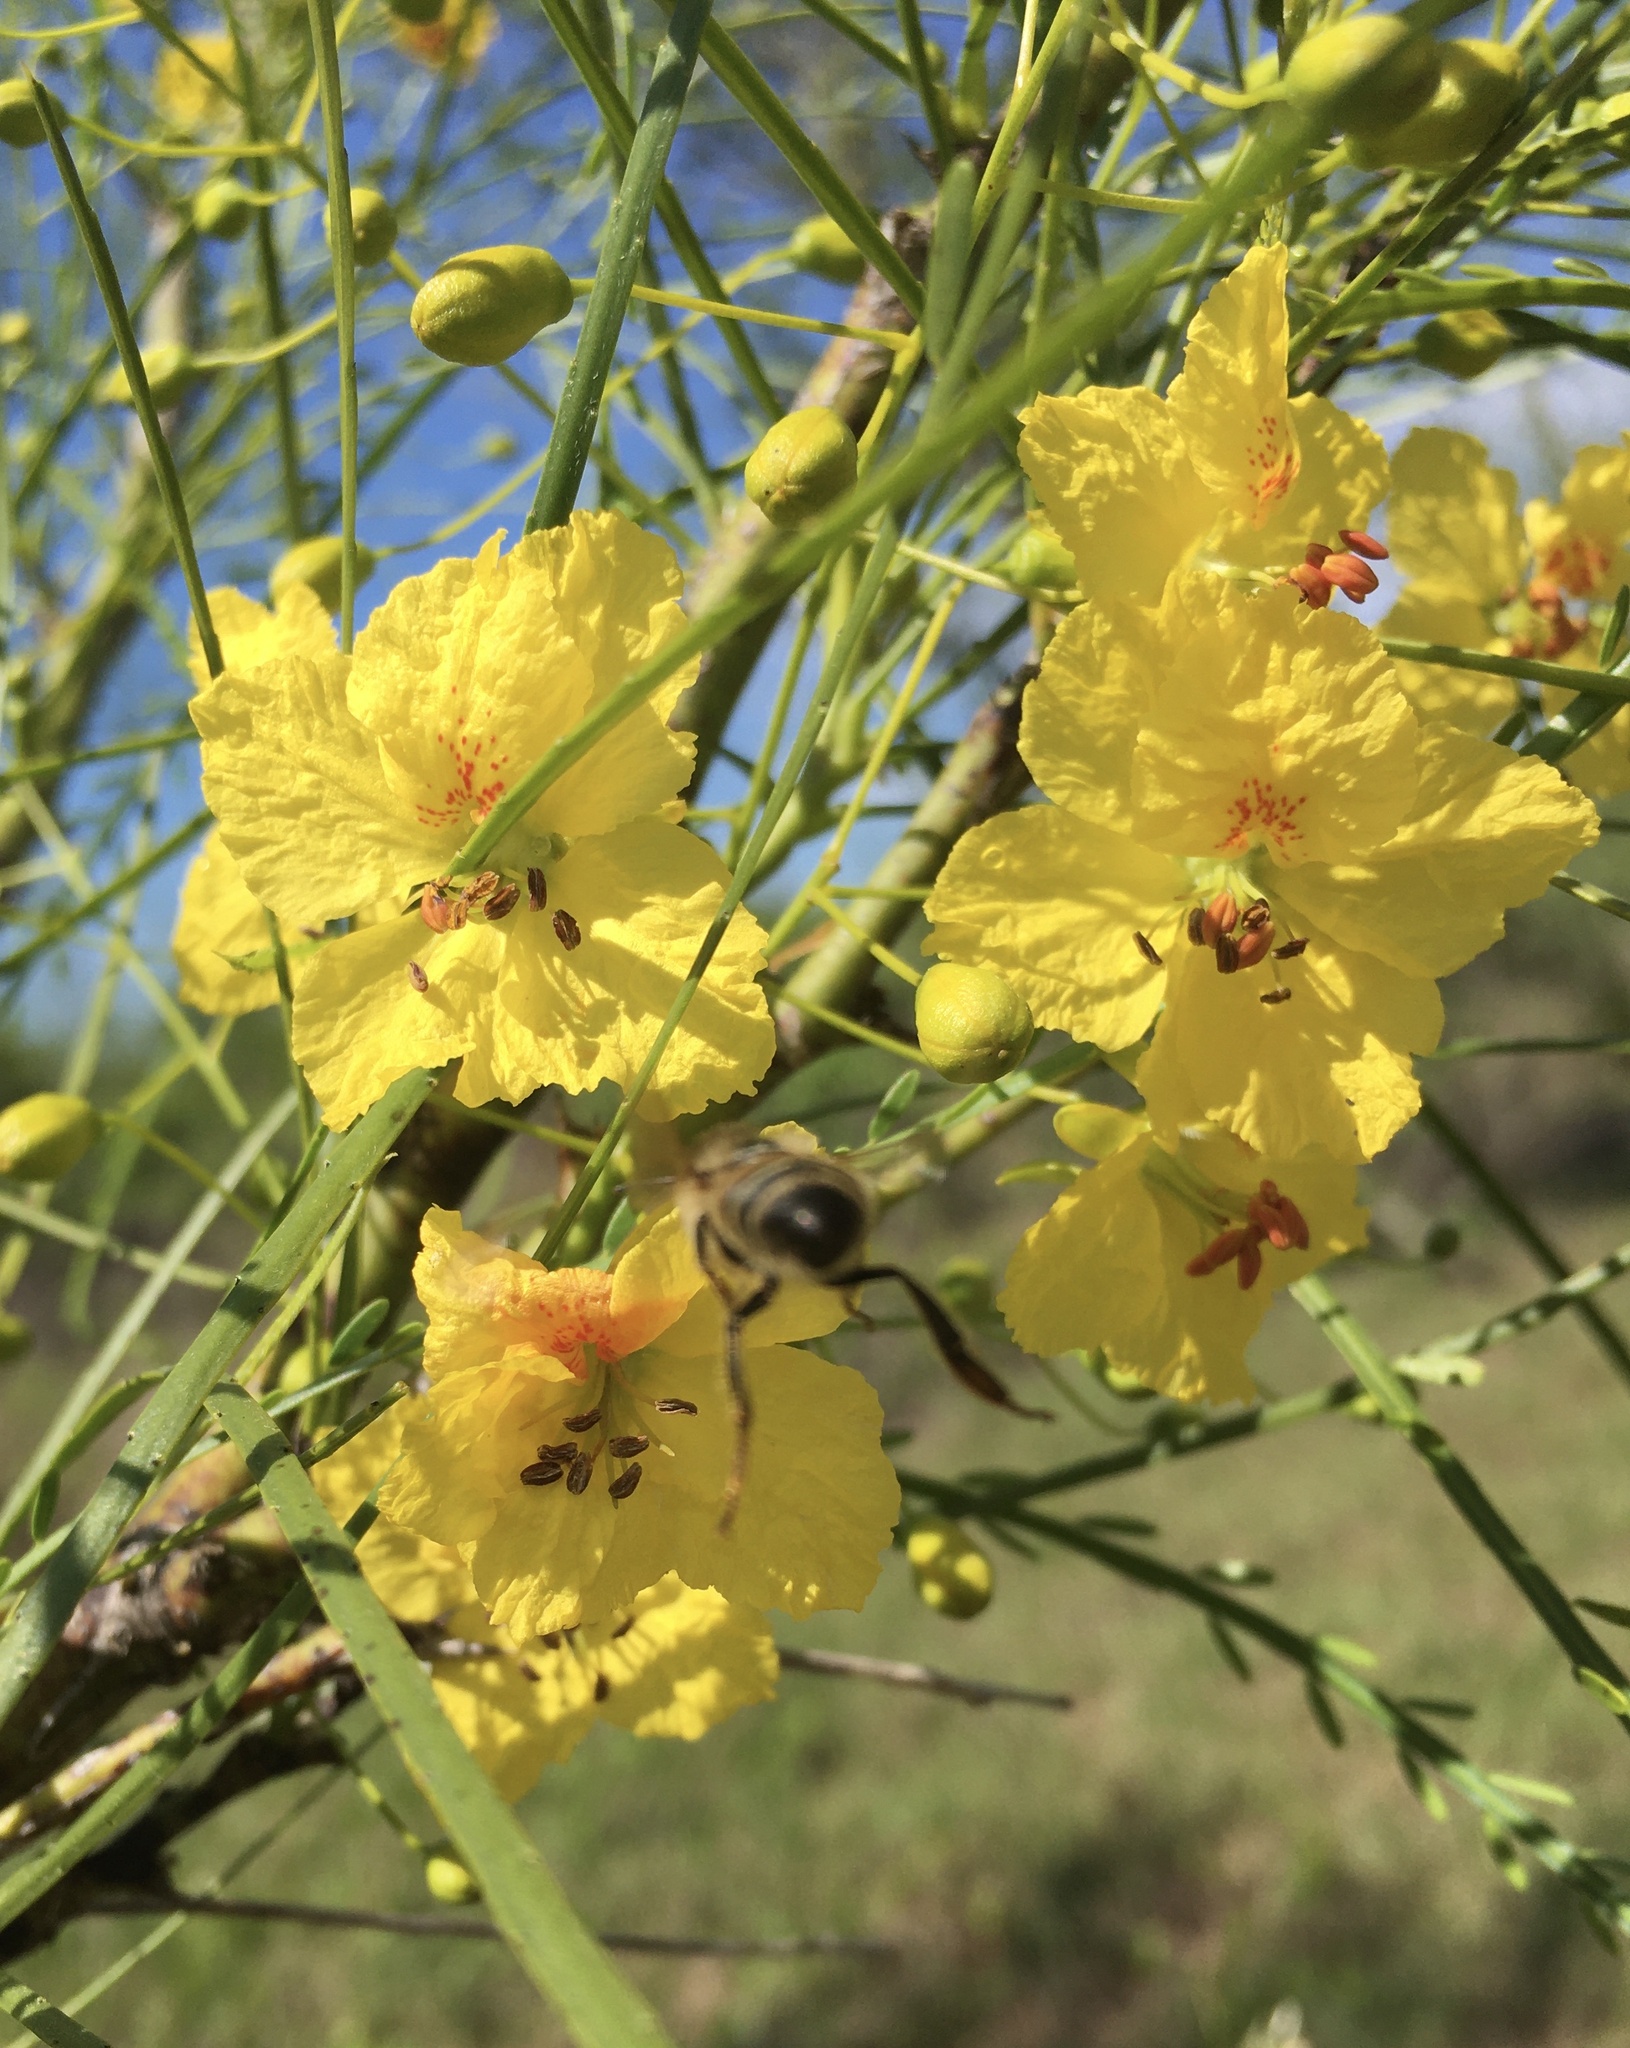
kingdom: Plantae
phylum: Tracheophyta
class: Magnoliopsida
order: Fabales
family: Fabaceae
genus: Parkinsonia
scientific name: Parkinsonia aculeata
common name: Jerusalem thorn
